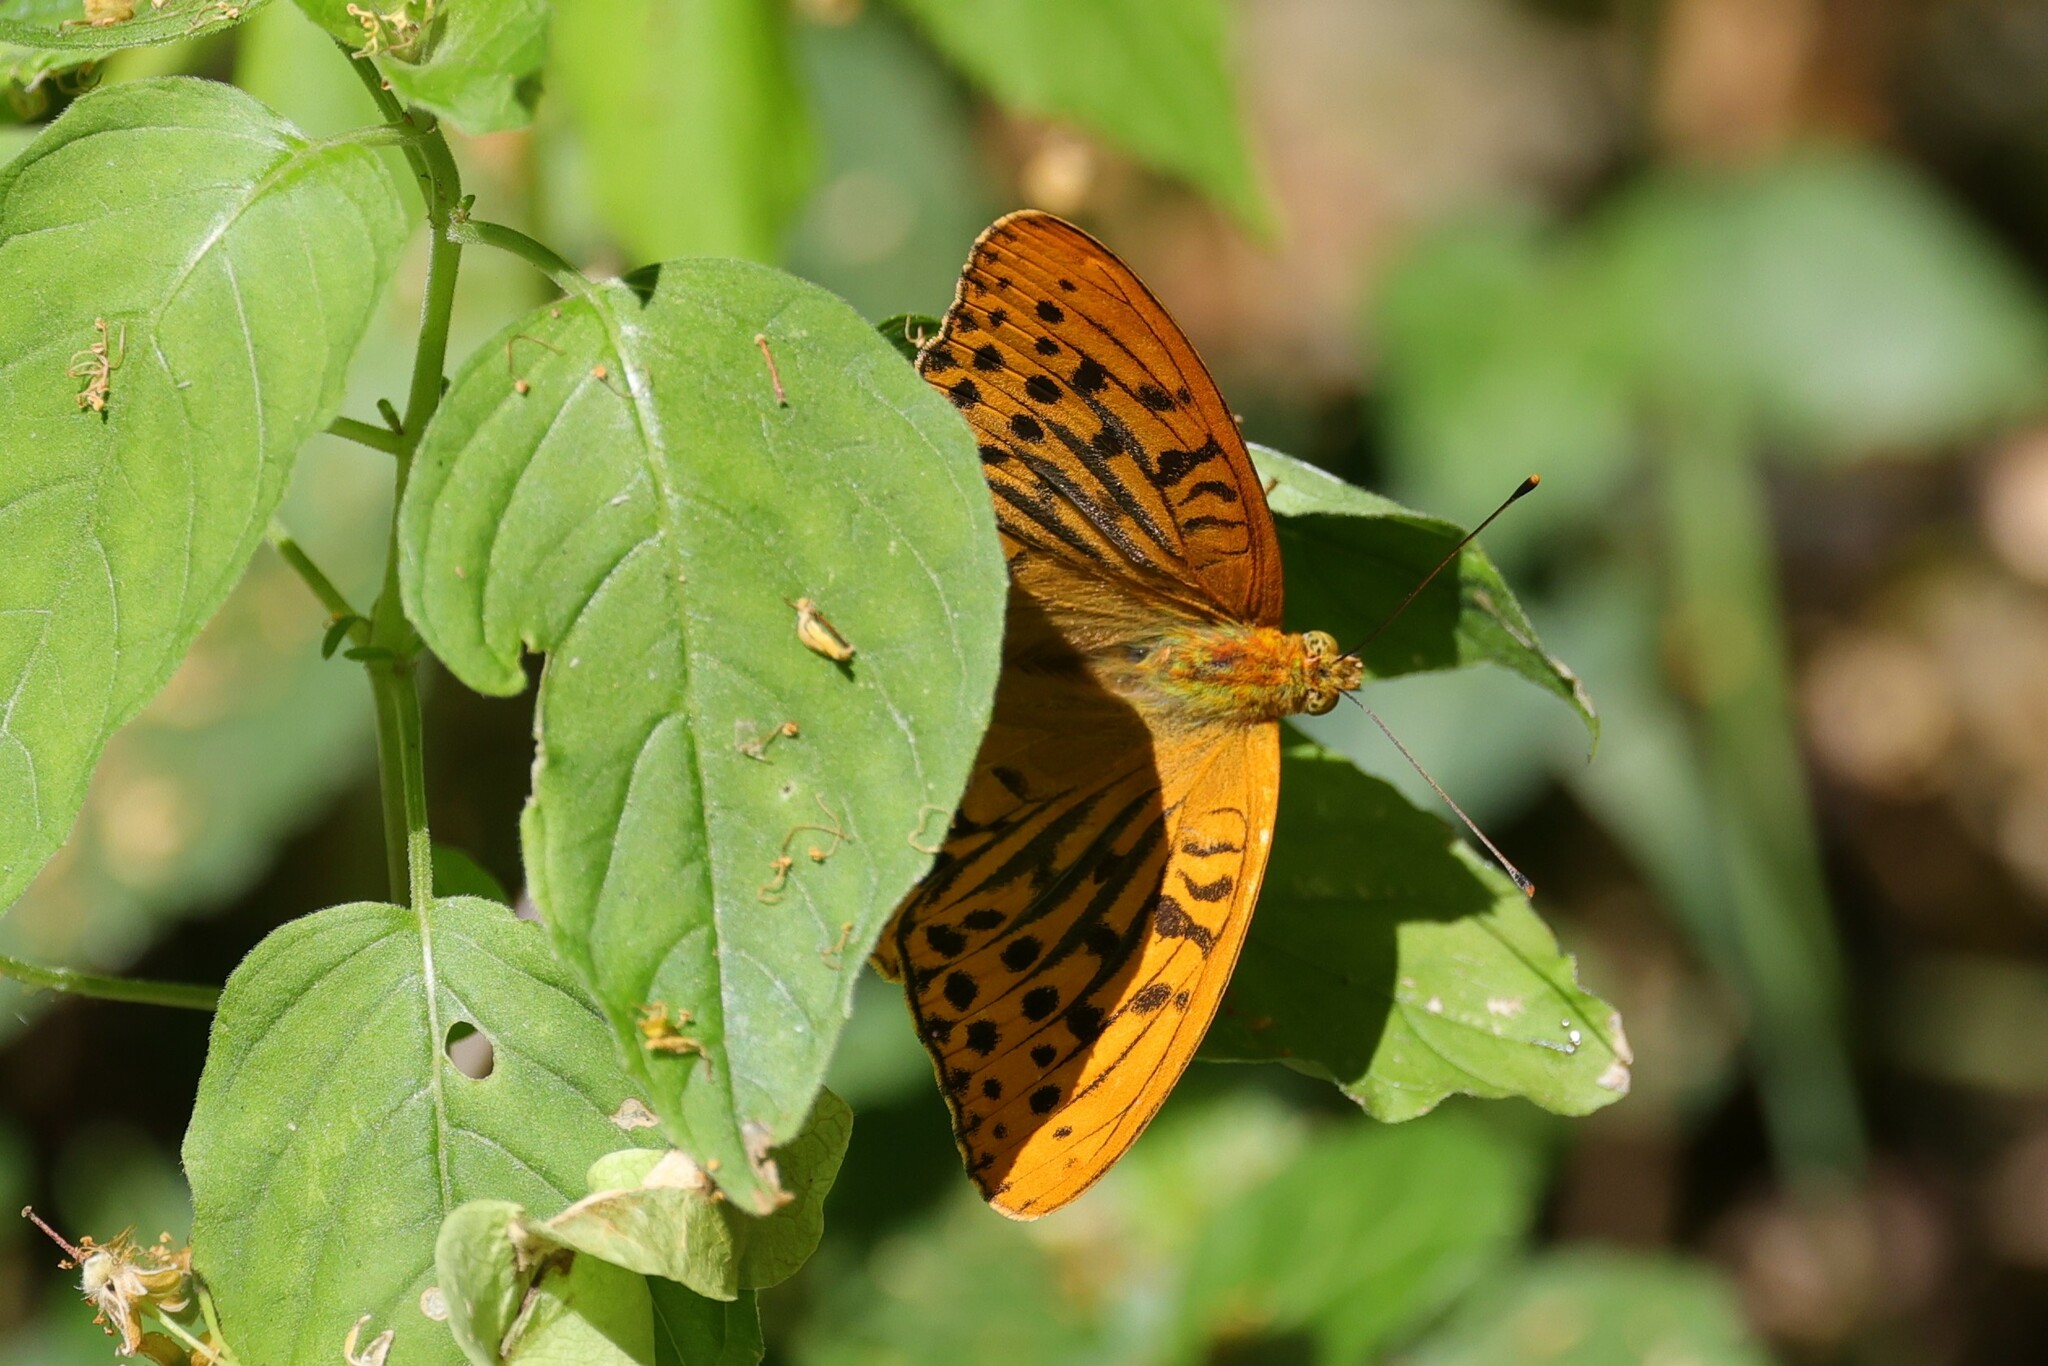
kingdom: Animalia
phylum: Arthropoda
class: Insecta
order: Lepidoptera
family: Nymphalidae
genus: Argynnis
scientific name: Argynnis paphia
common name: Silver-washed fritillary
